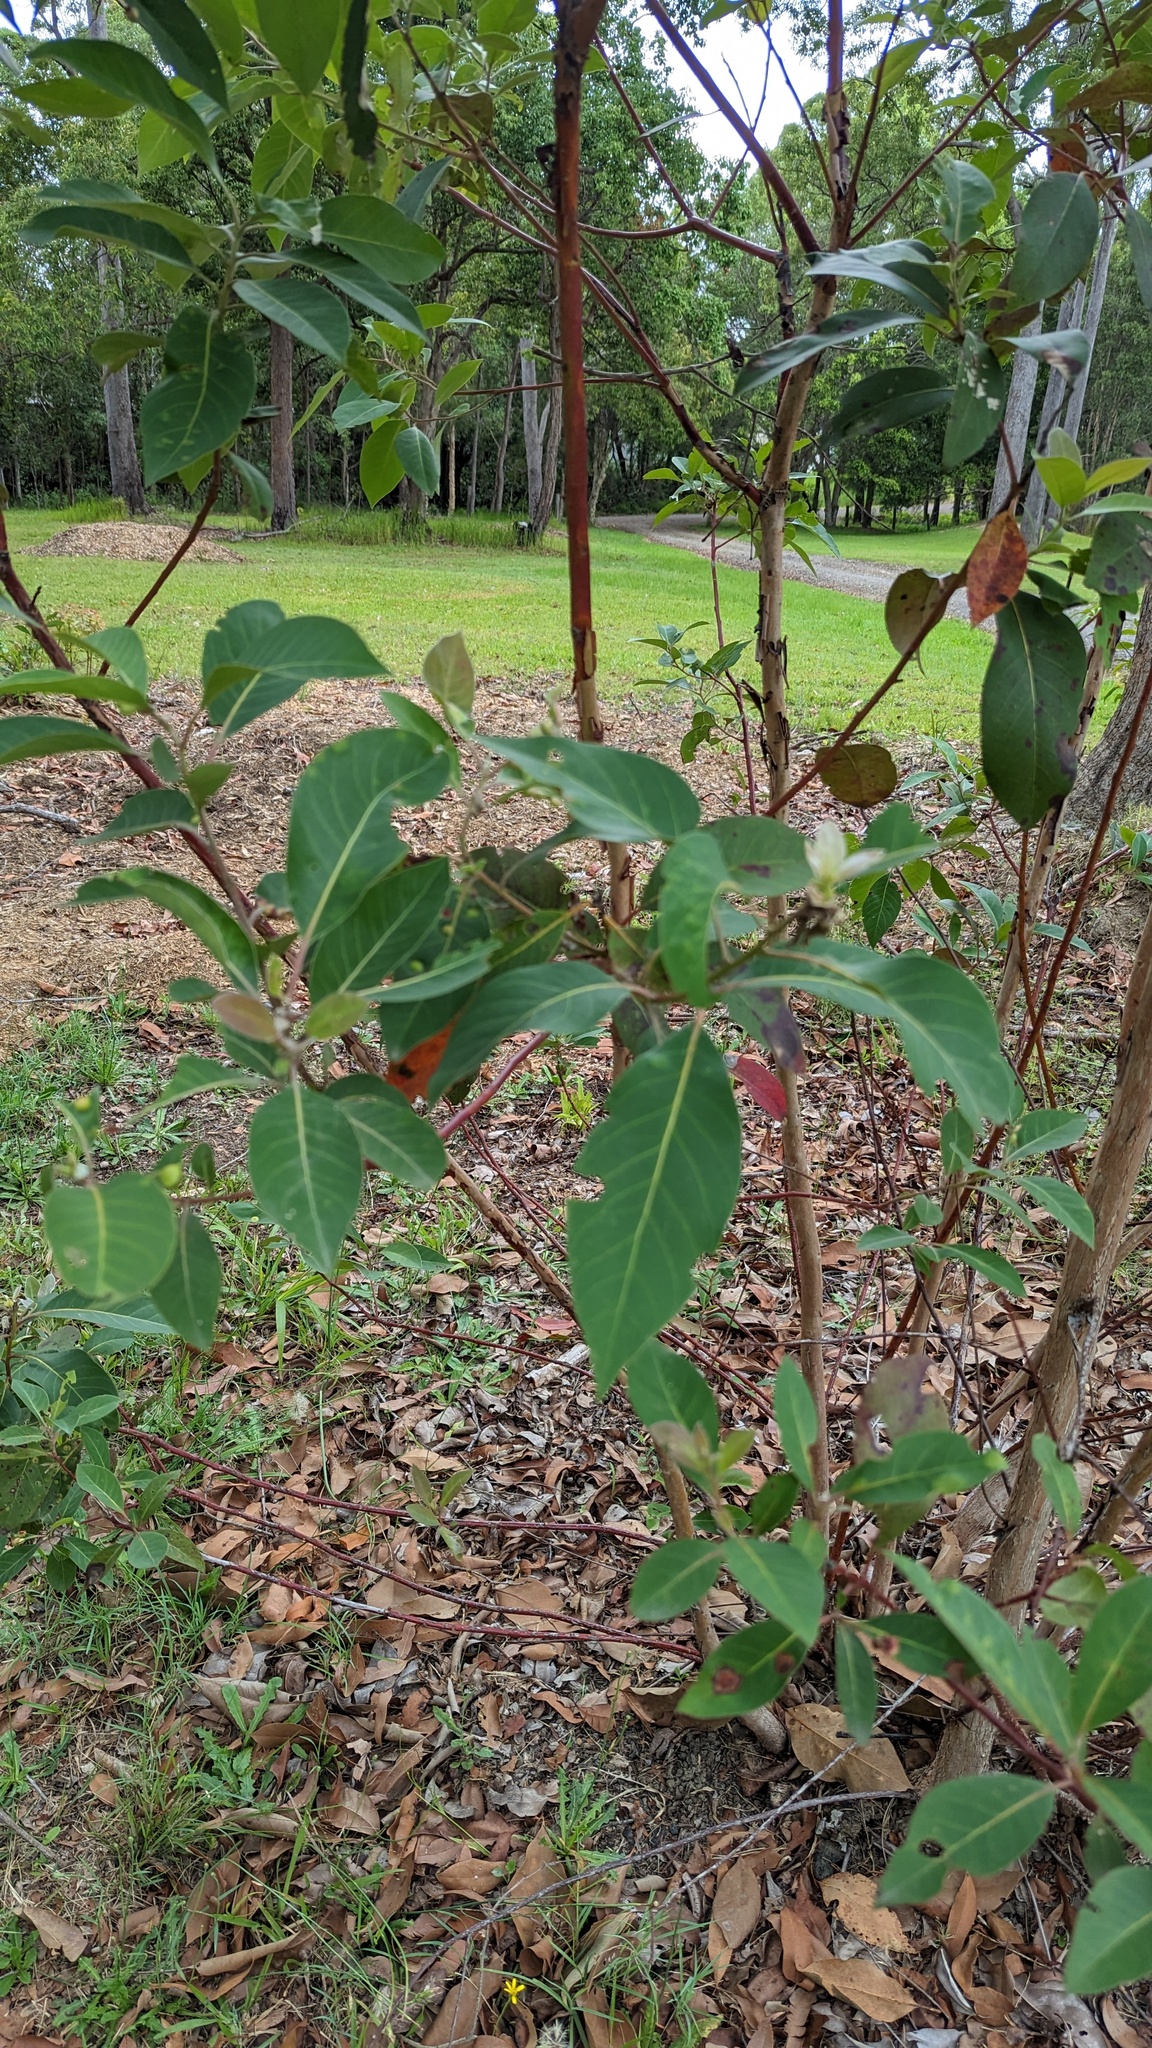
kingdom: Plantae
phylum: Tracheophyta
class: Magnoliopsida
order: Myrtales
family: Myrtaceae
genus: Lophostemon
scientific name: Lophostemon confertus
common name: Brisbane box
